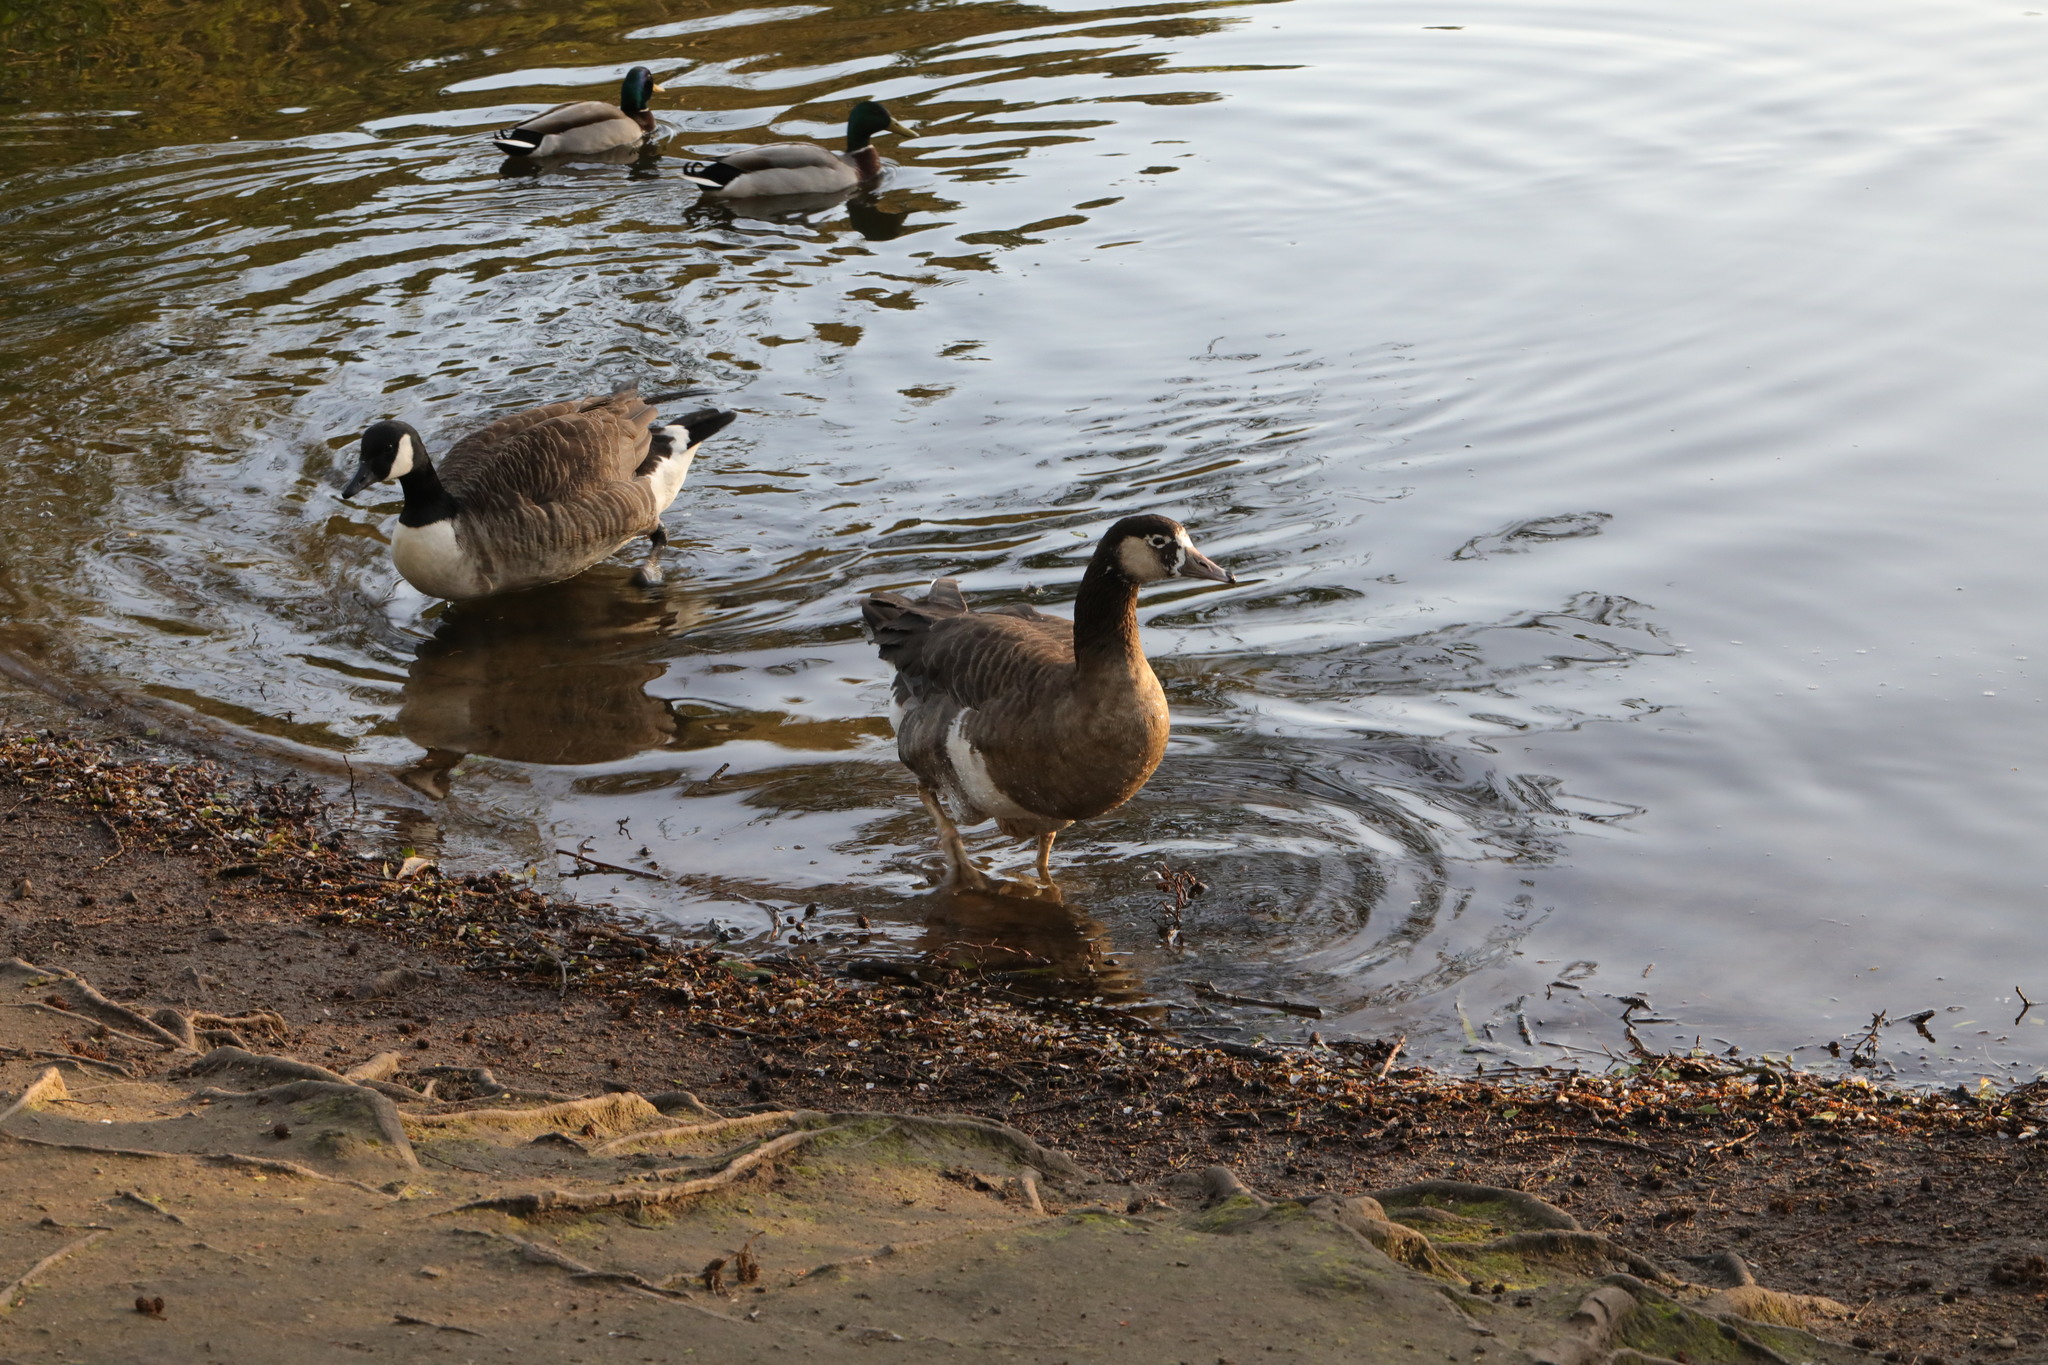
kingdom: Animalia
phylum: Chordata
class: Aves
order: Anseriformes
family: Anatidae
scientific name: Anatidae
